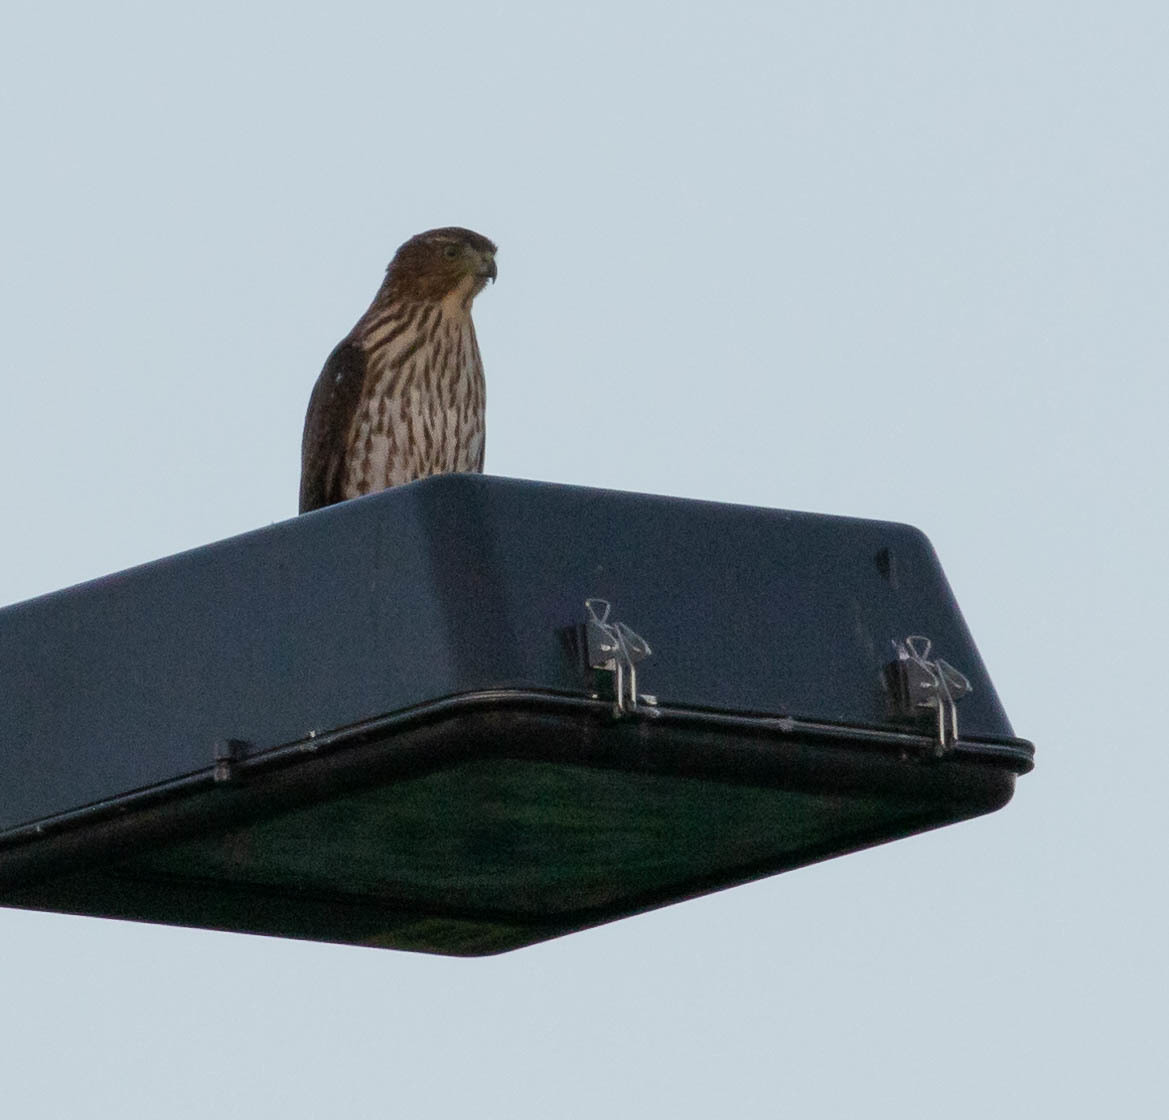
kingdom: Animalia
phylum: Chordata
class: Aves
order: Accipitriformes
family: Accipitridae
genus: Accipiter
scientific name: Accipiter cooperii
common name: Cooper's hawk
